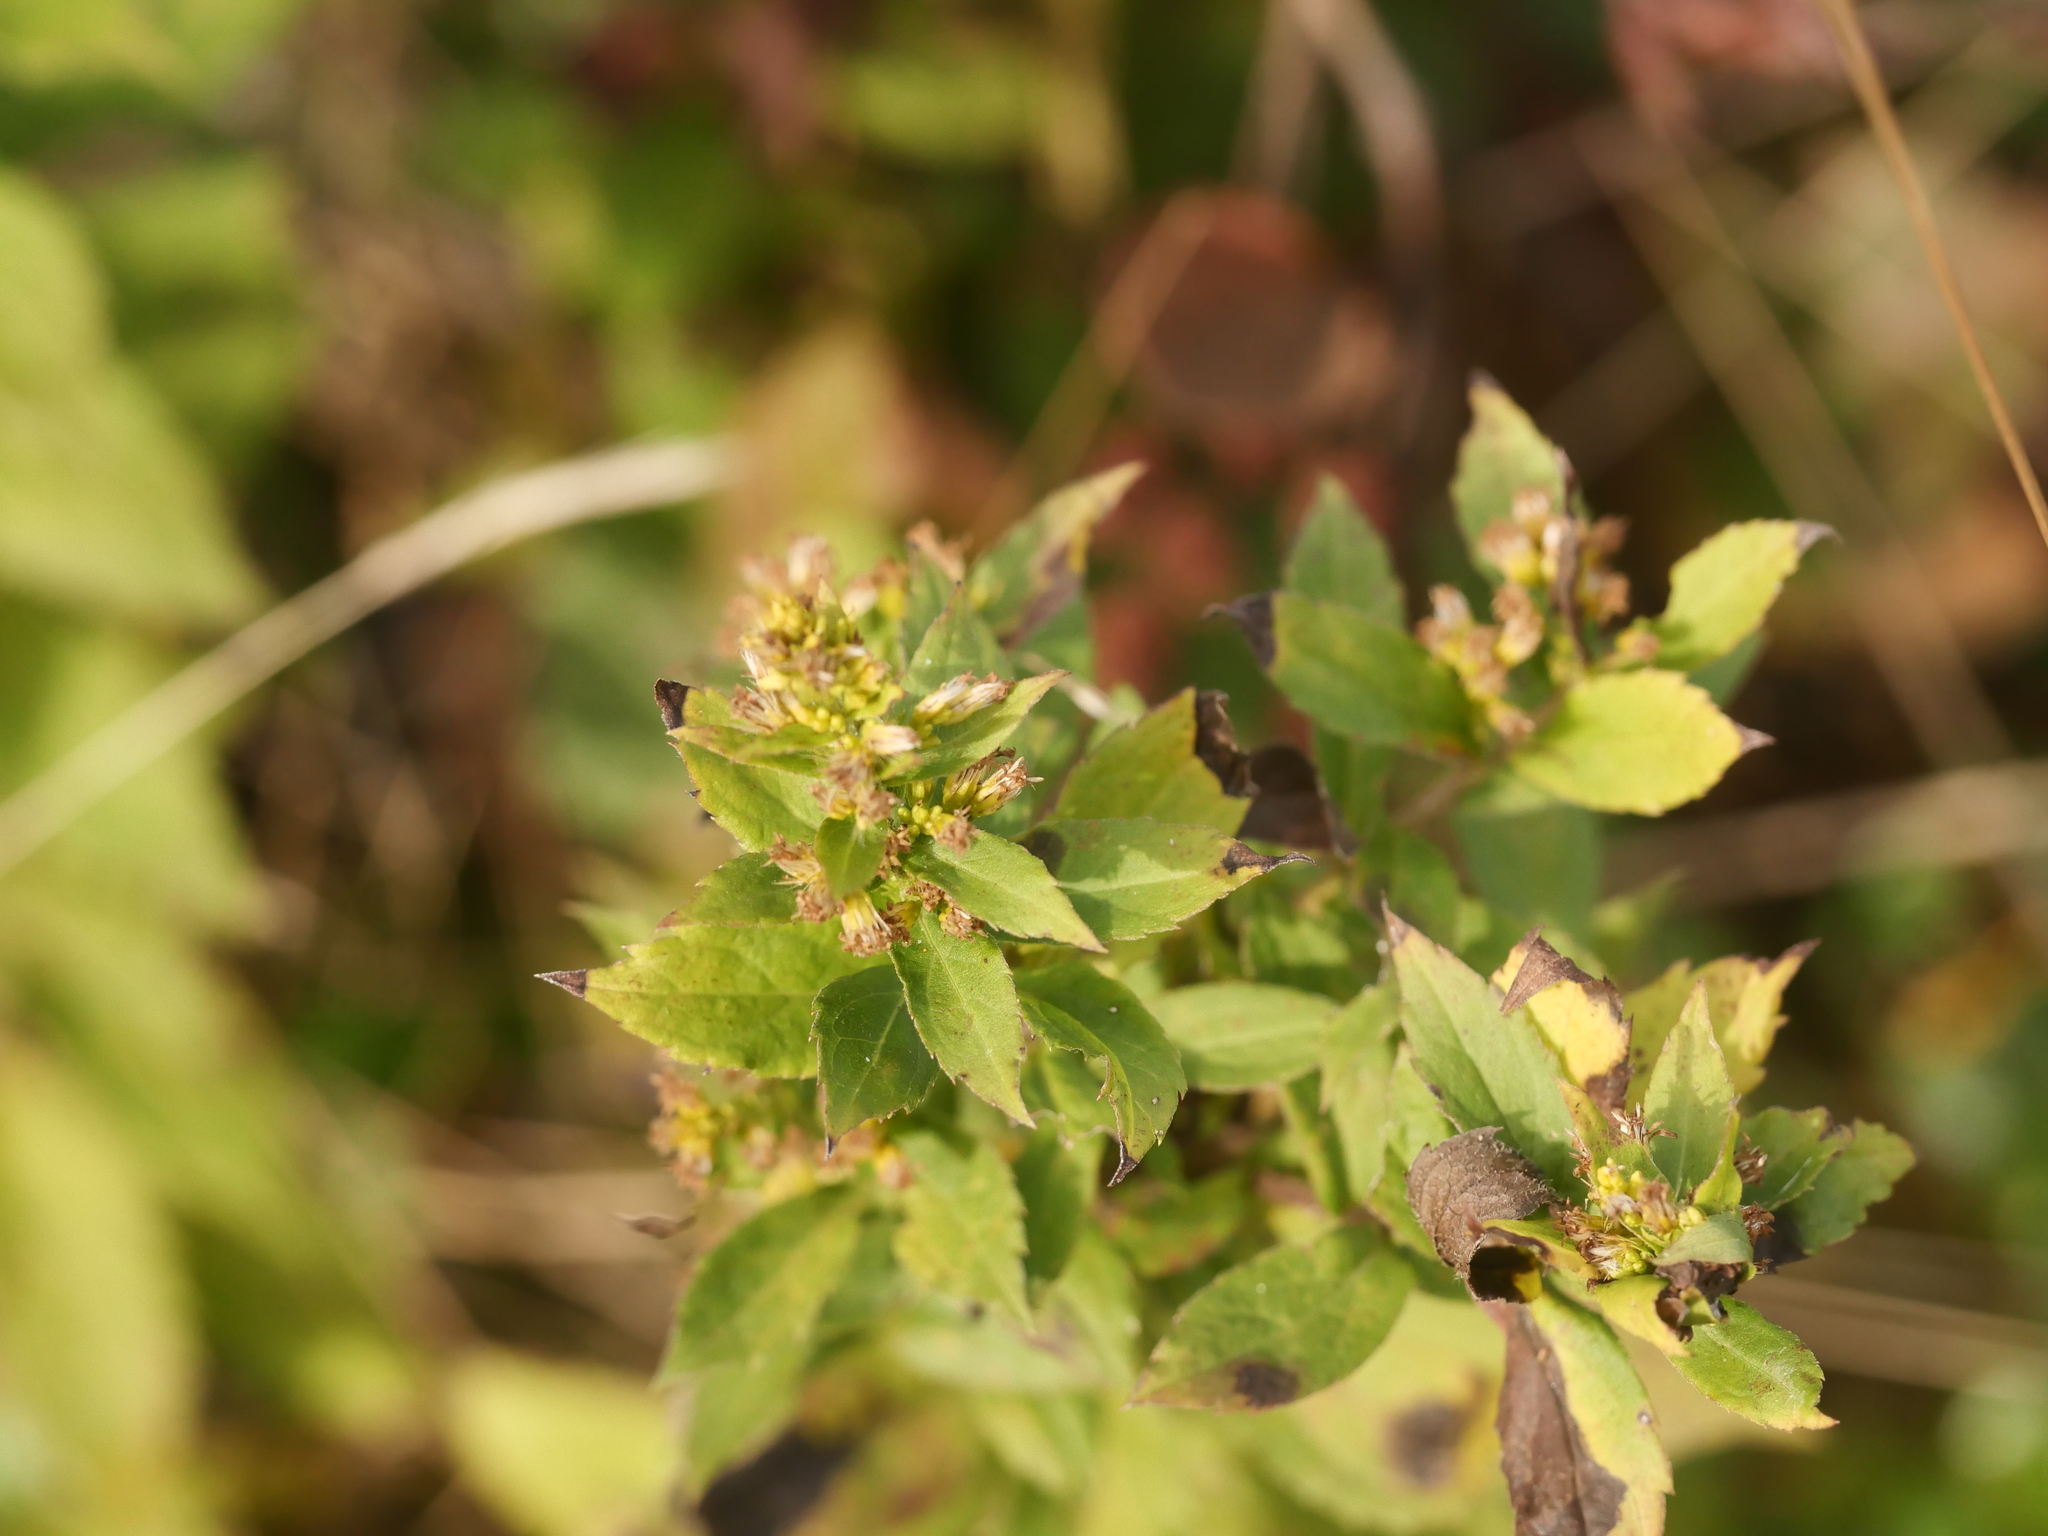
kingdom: Plantae
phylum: Tracheophyta
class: Magnoliopsida
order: Asterales
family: Asteraceae
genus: Solidago
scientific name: Solidago rugosa
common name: Rough-stemmed goldenrod
